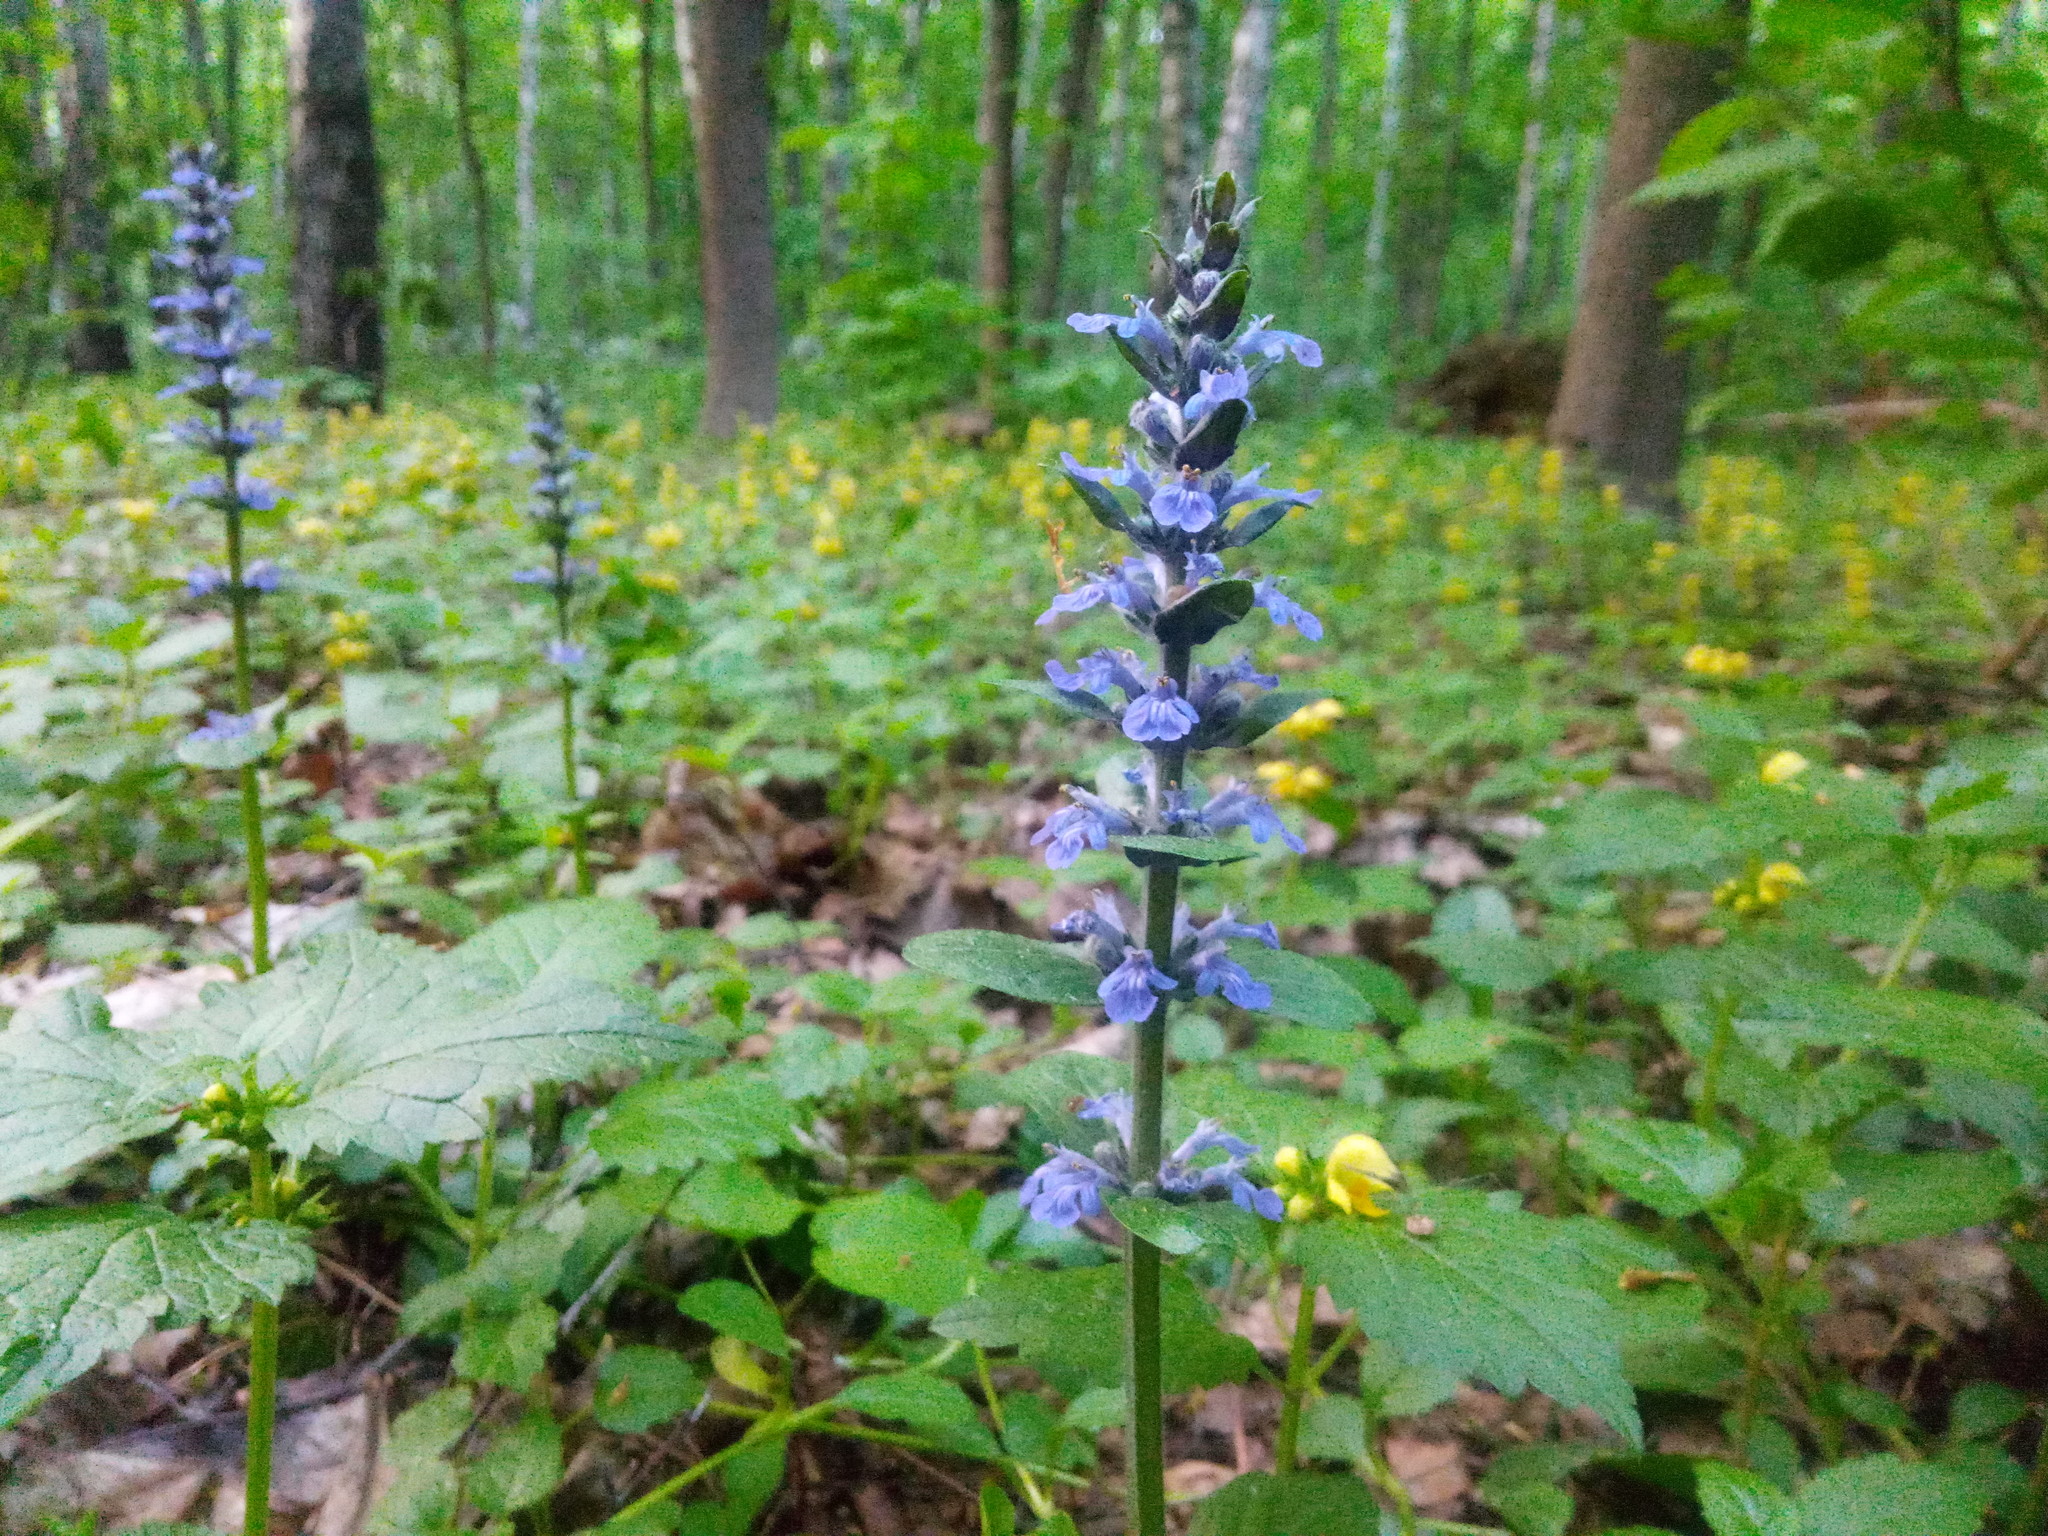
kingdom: Plantae
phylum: Tracheophyta
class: Magnoliopsida
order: Lamiales
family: Lamiaceae
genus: Ajuga
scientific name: Ajuga reptans
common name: Bugle
